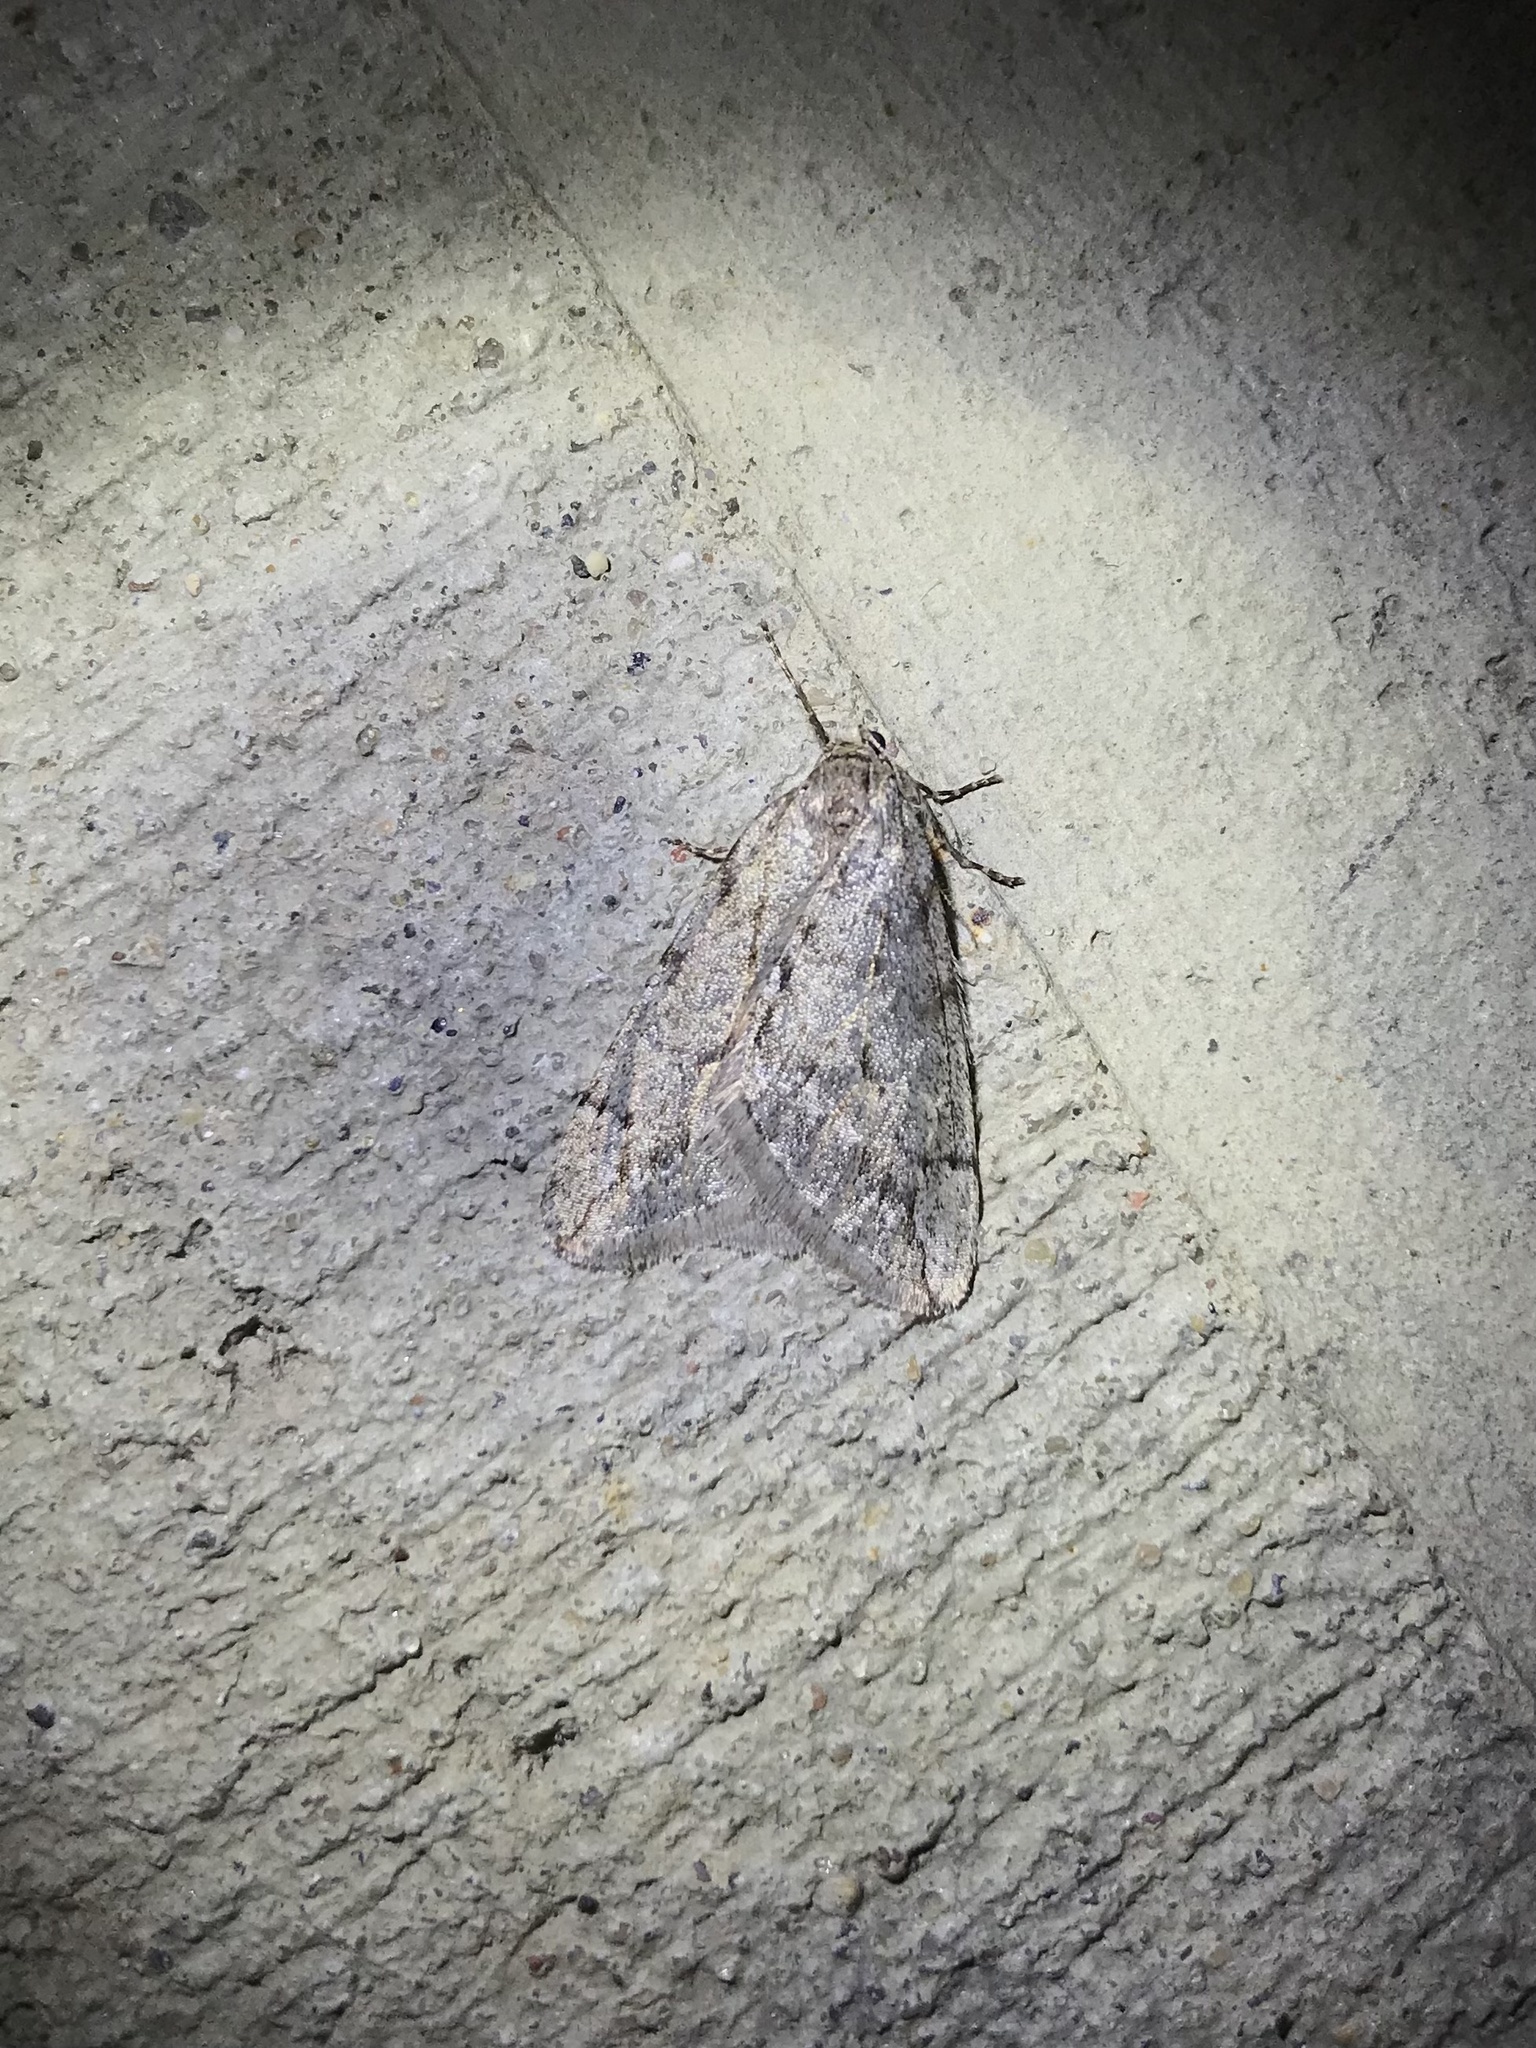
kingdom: Animalia
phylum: Arthropoda
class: Insecta
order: Lepidoptera
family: Geometridae
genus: Paleacrita
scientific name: Paleacrita vernata
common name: Spring cankerworm
